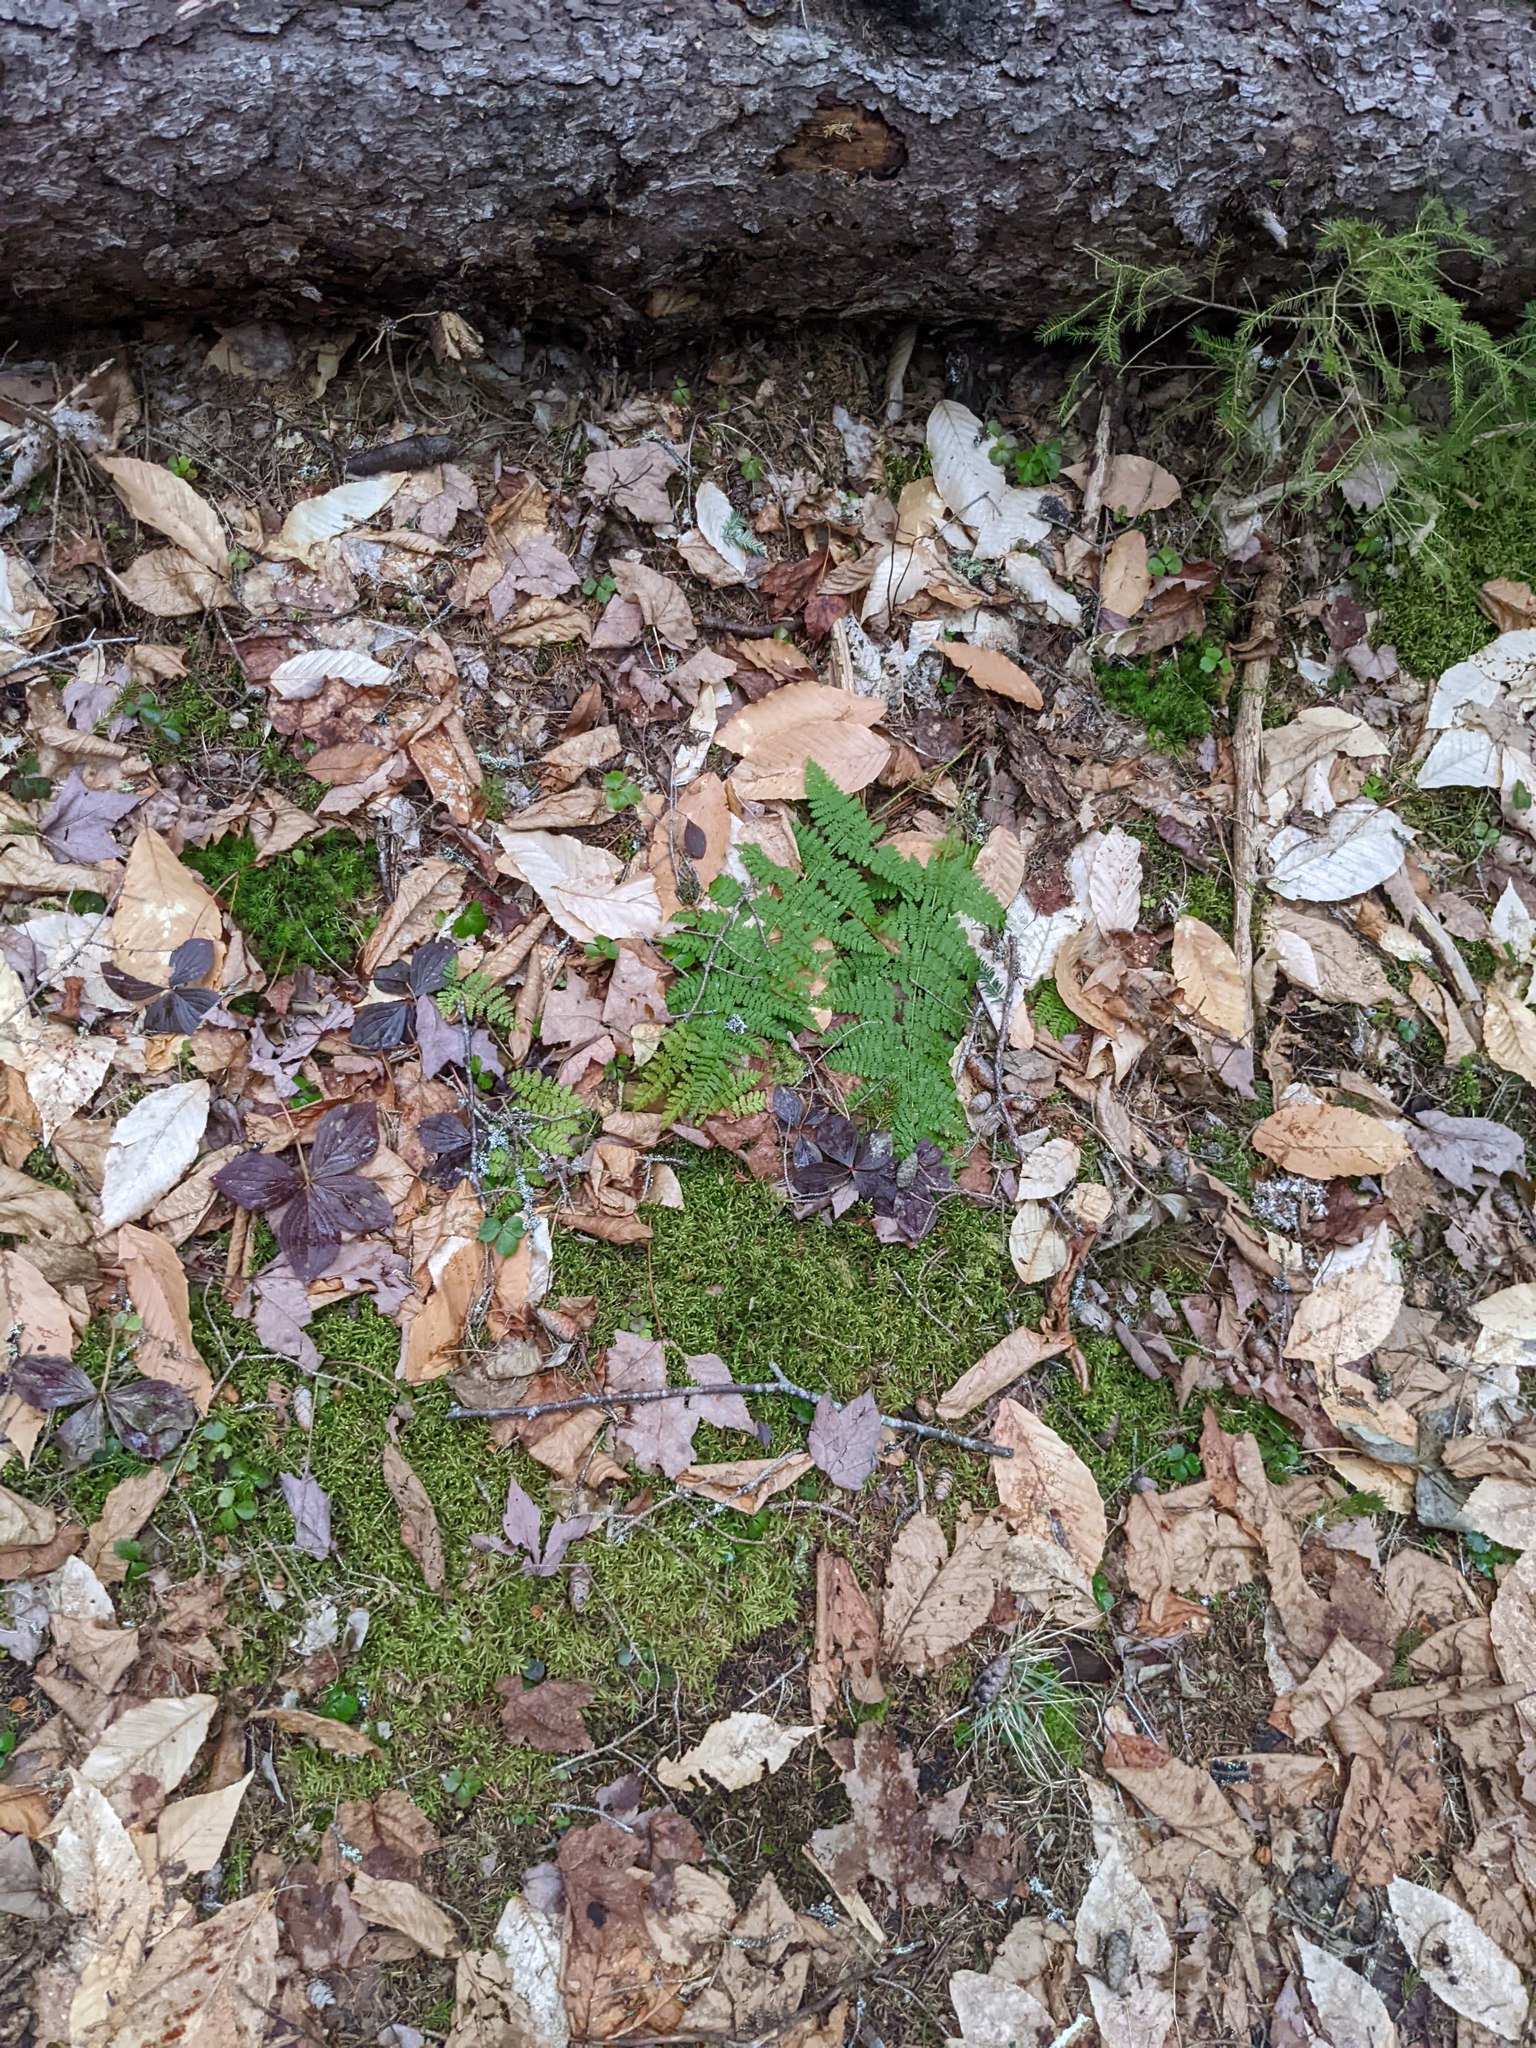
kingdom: Plantae
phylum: Tracheophyta
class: Polypodiopsida
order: Polypodiales
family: Dryopteridaceae
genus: Dryopteris
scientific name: Dryopteris intermedia
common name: Evergreen wood fern
